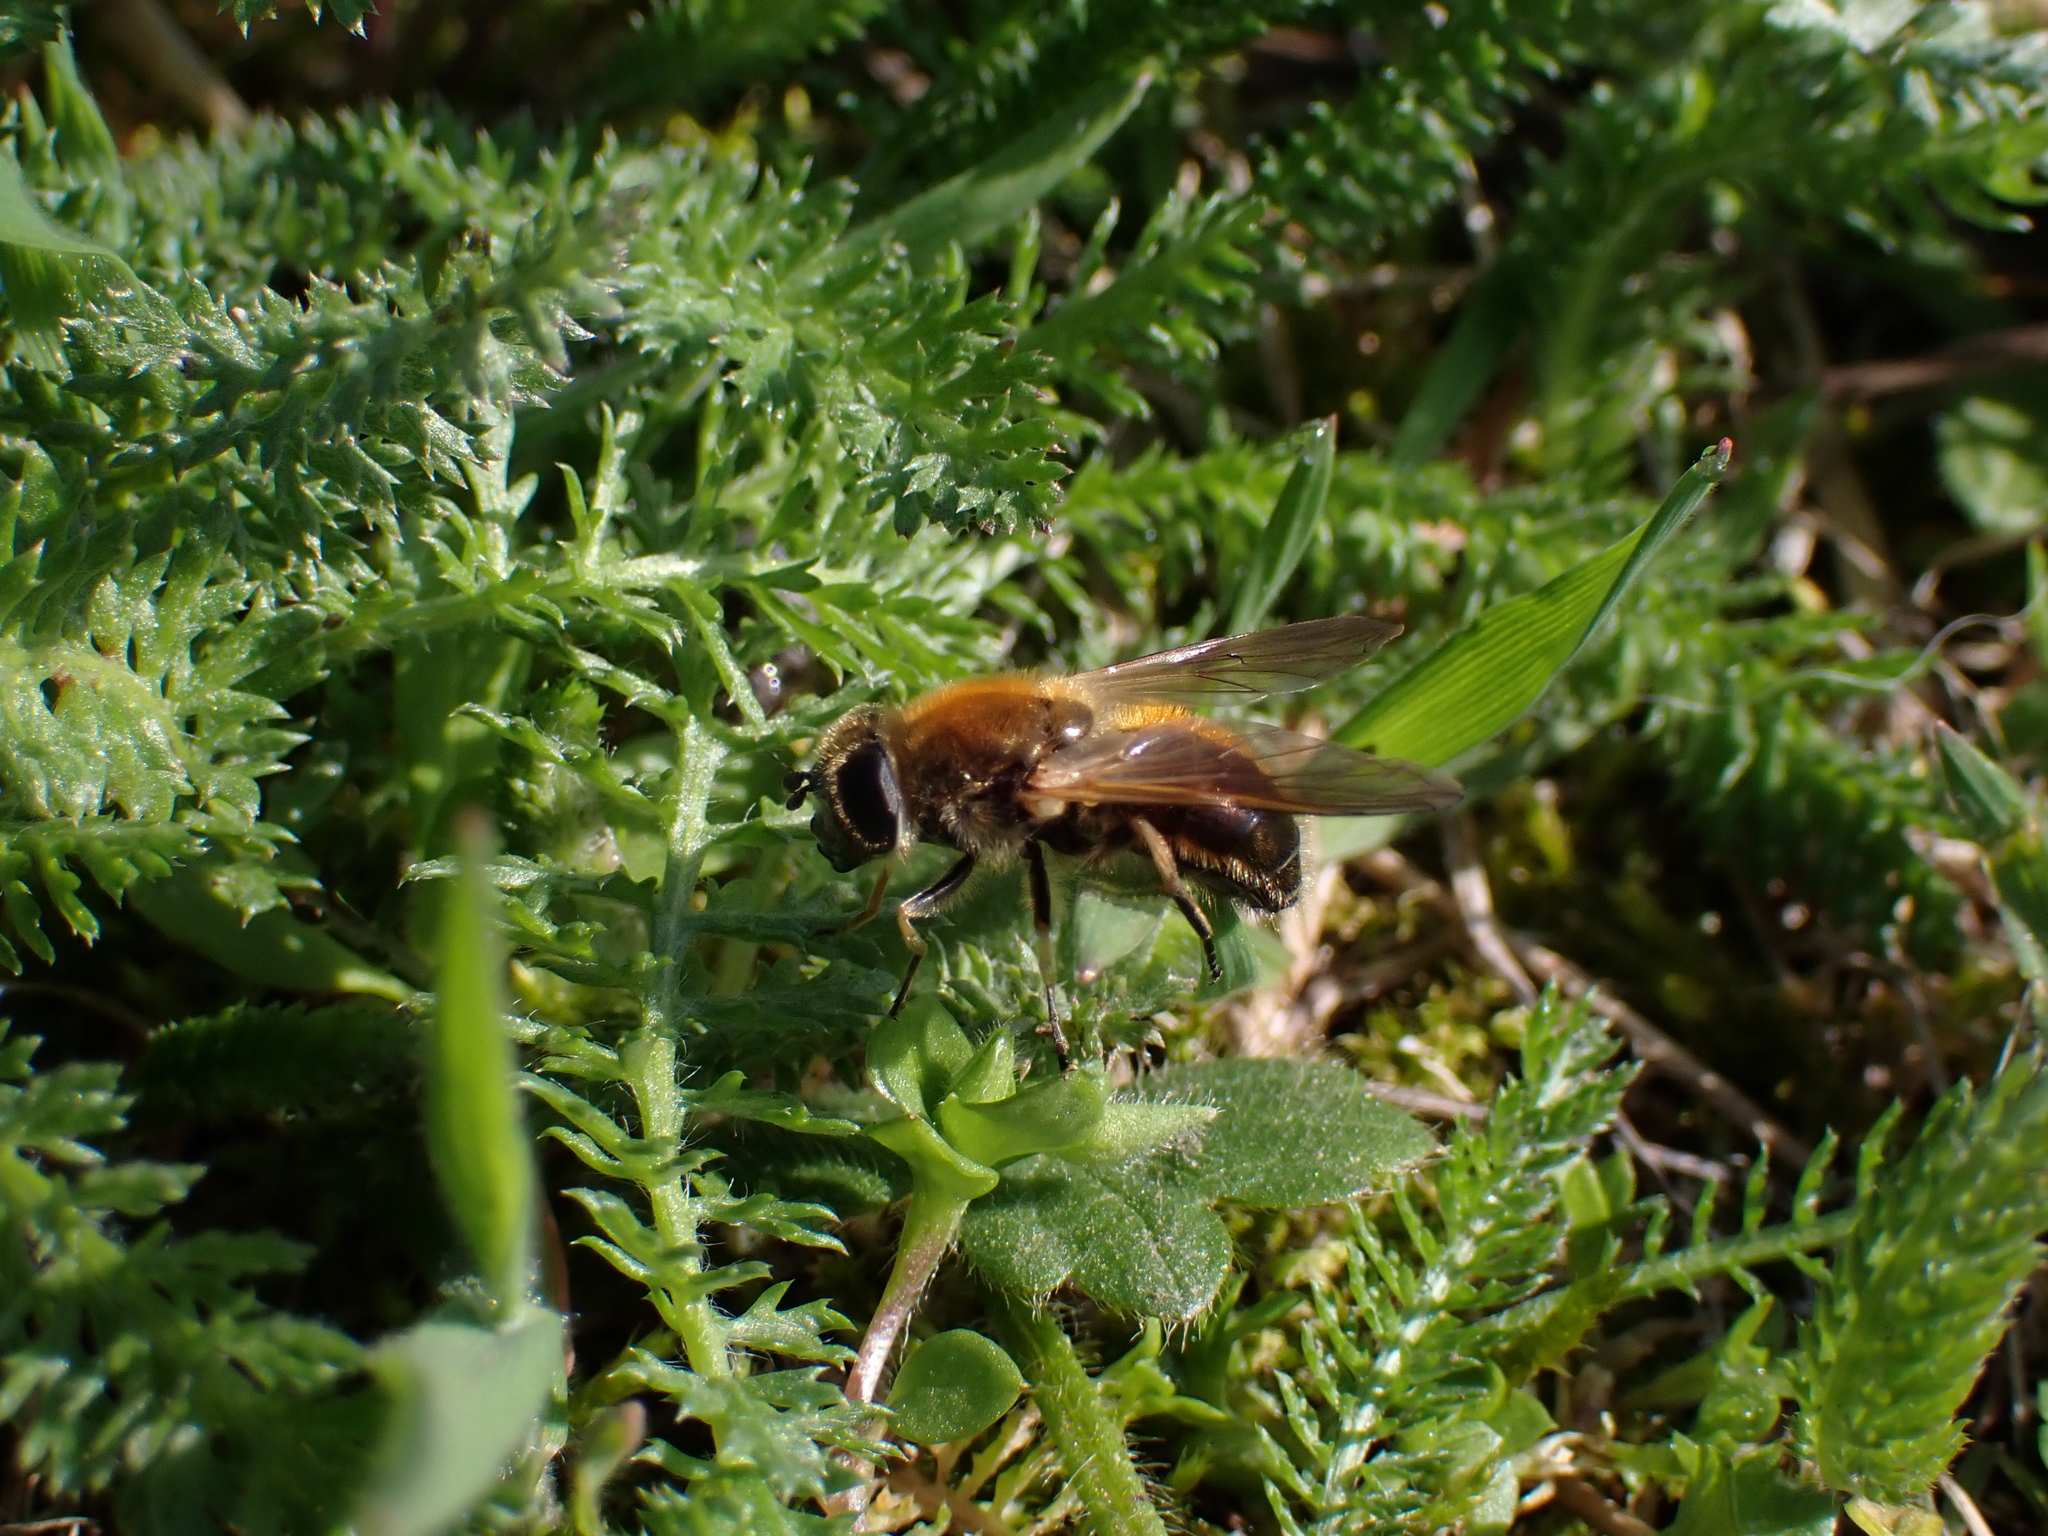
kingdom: Animalia
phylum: Arthropoda
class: Insecta
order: Diptera
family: Syrphidae
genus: Cheilosia
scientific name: Cheilosia corydon
